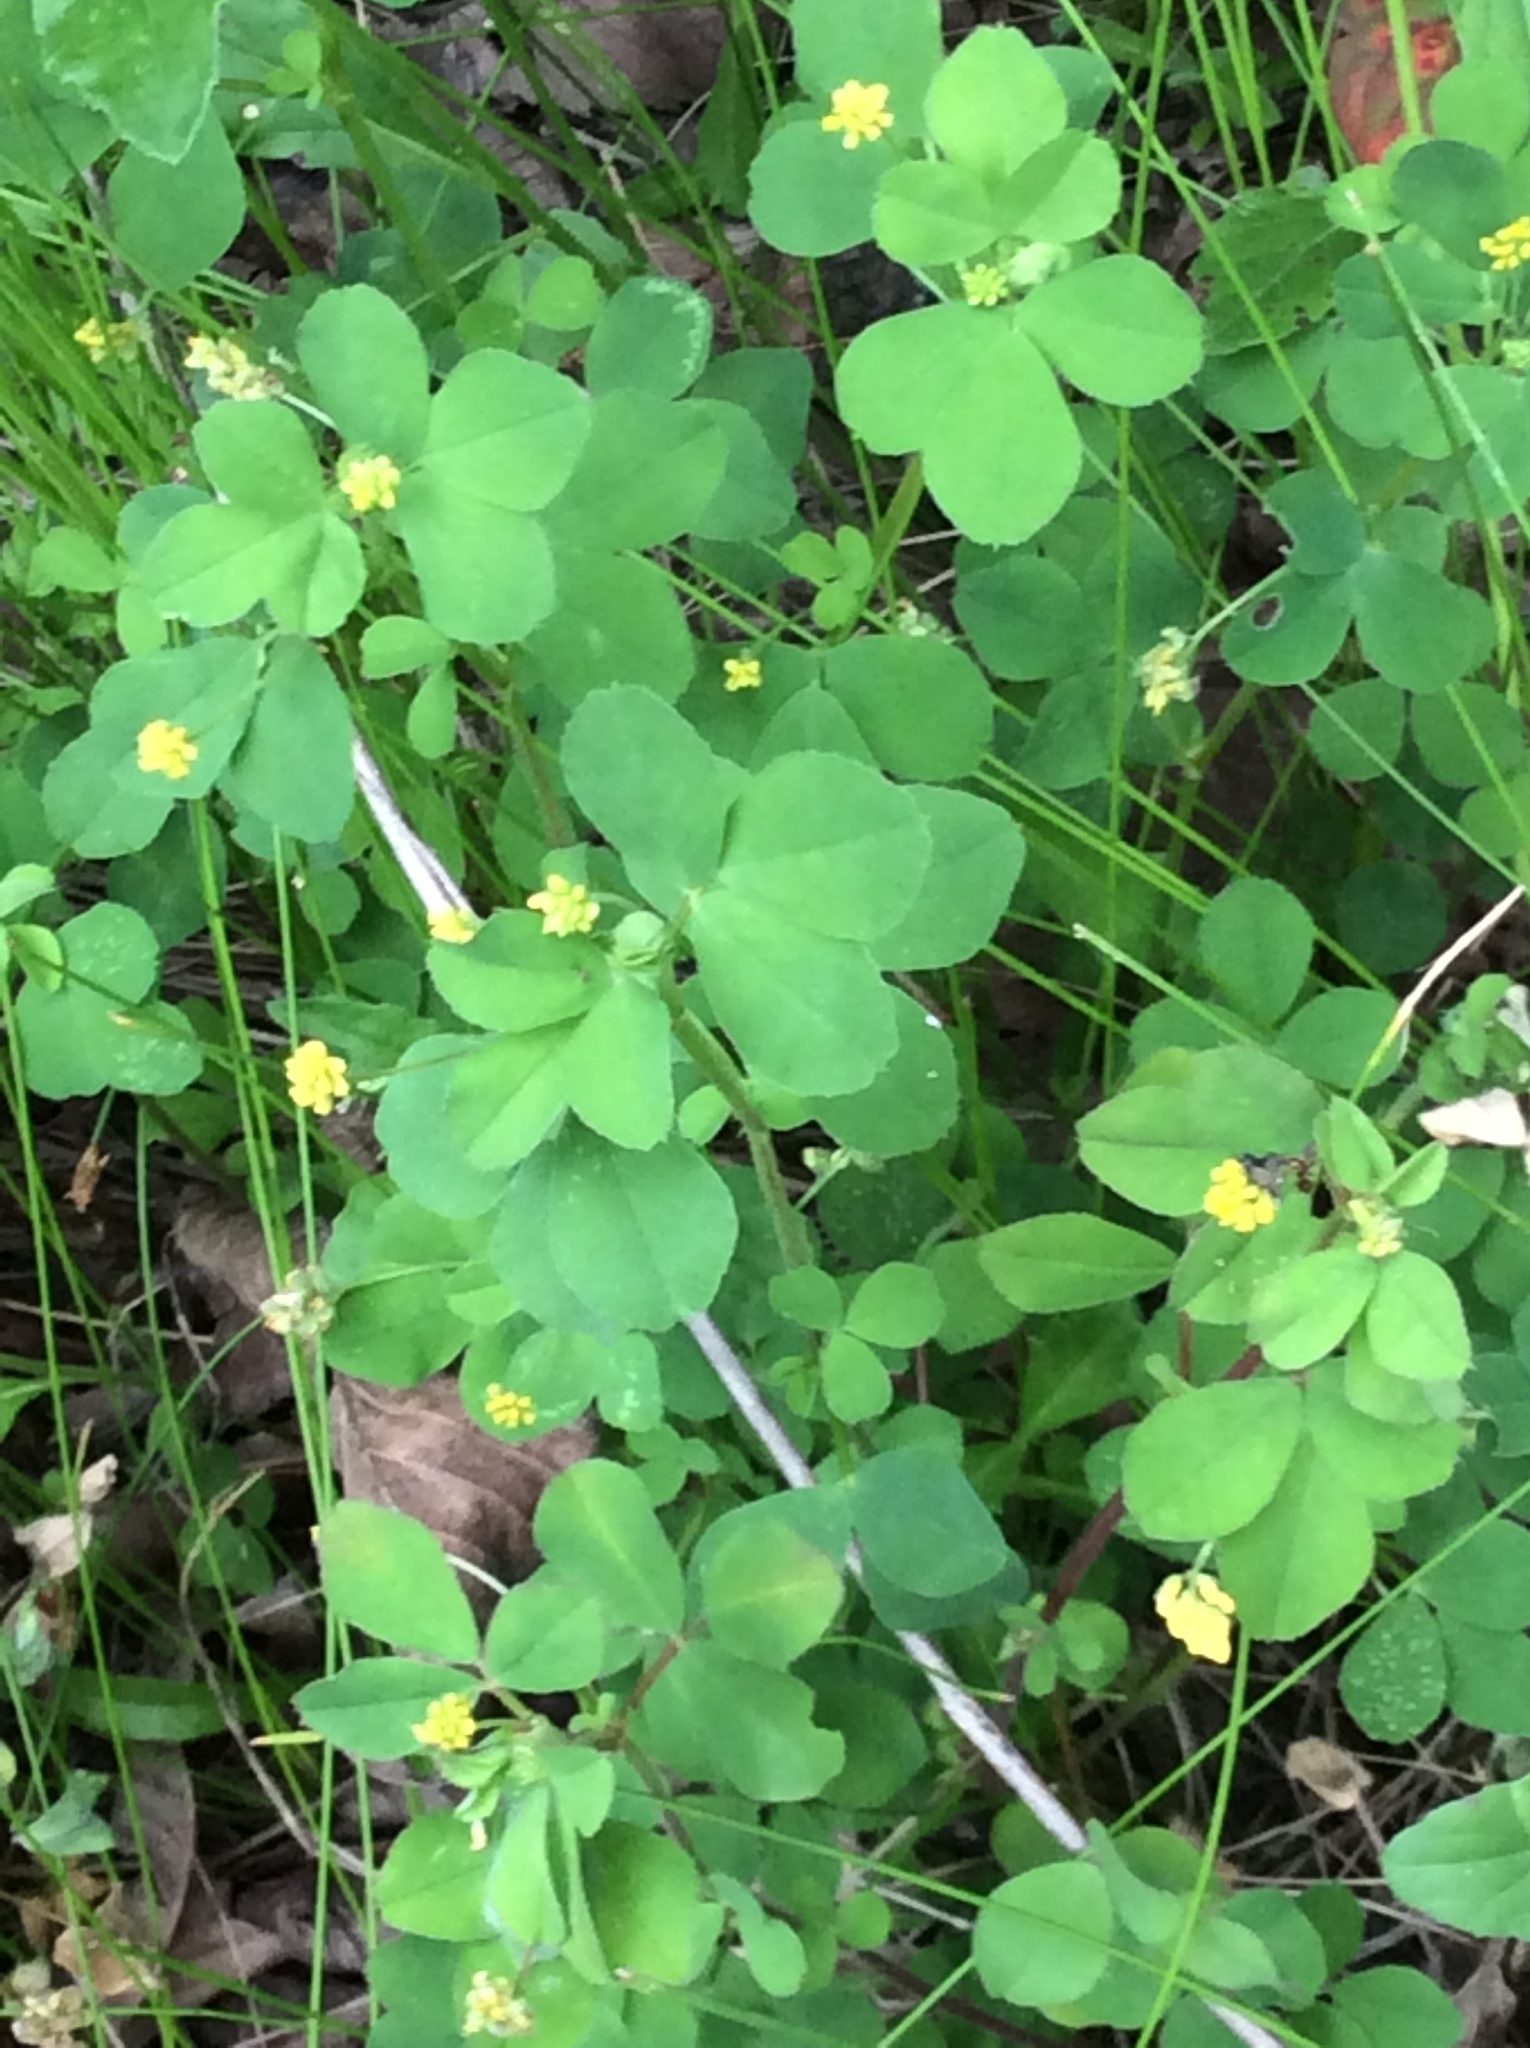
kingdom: Plantae
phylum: Tracheophyta
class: Magnoliopsida
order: Fabales
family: Fabaceae
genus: Medicago
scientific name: Medicago lupulina
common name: Black medick
